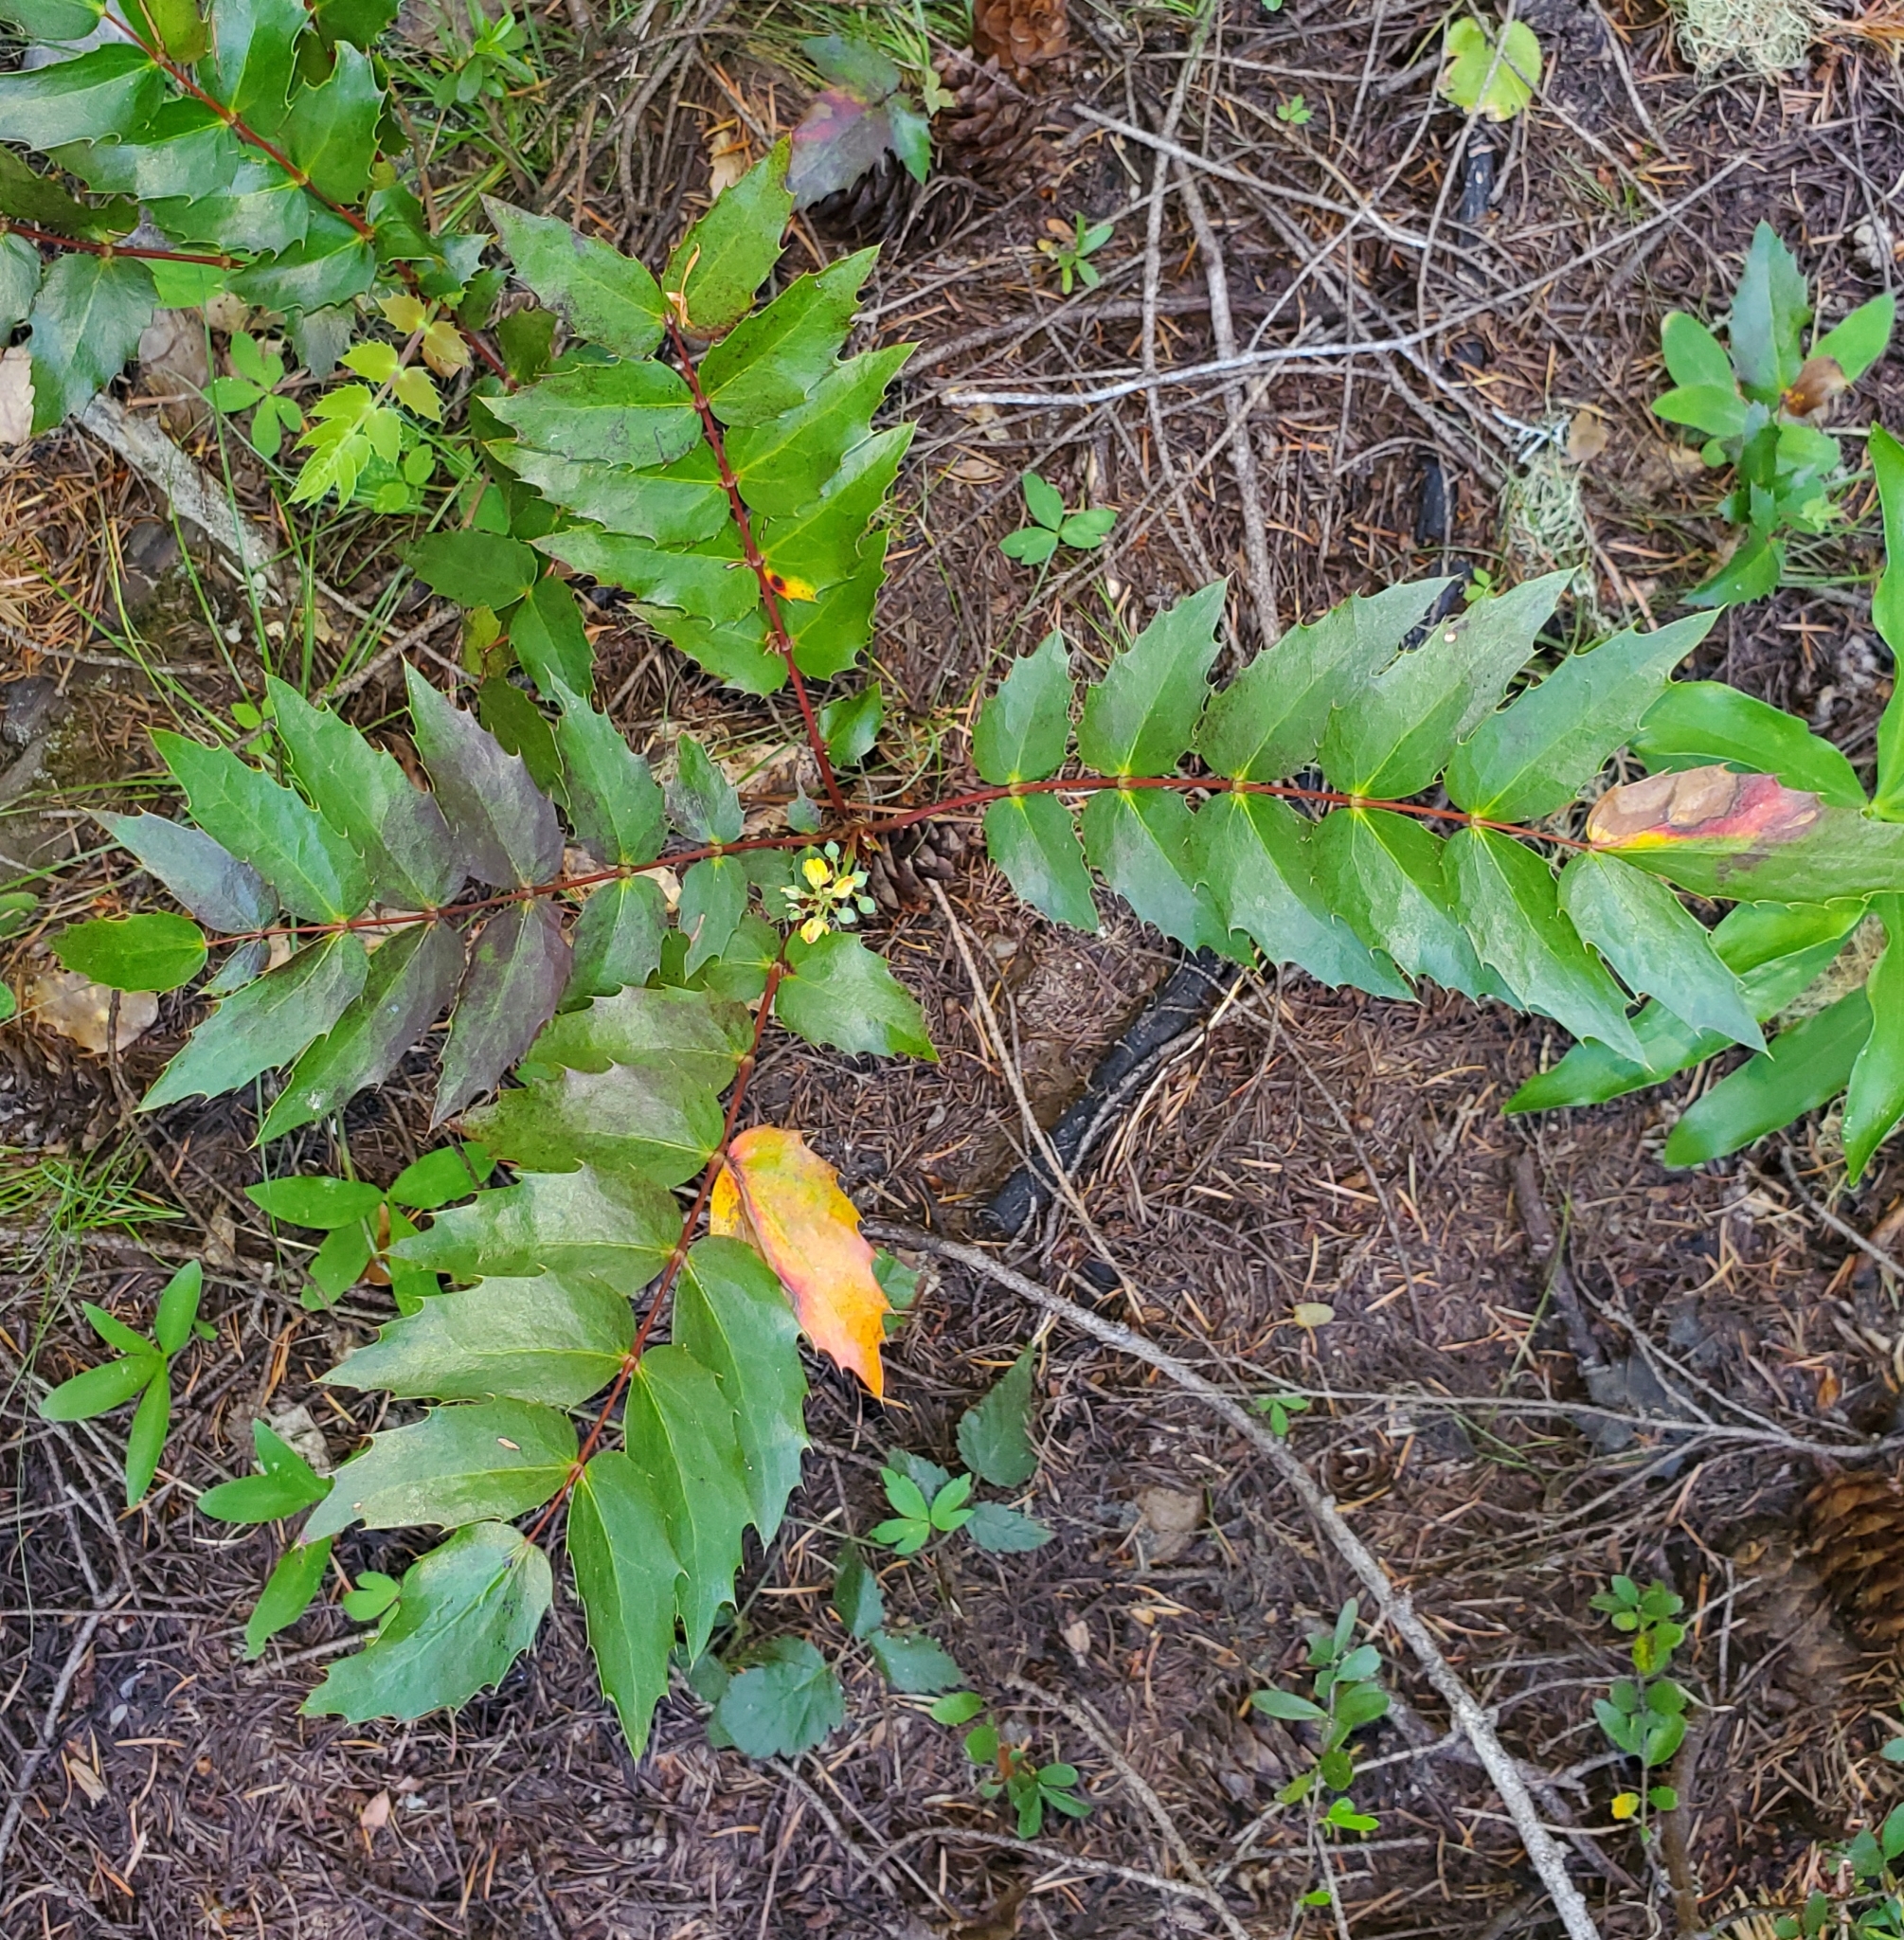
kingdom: Plantae
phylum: Tracheophyta
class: Magnoliopsida
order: Ranunculales
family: Berberidaceae
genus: Mahonia
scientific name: Mahonia nervosa
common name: Cascade oregon-grape
